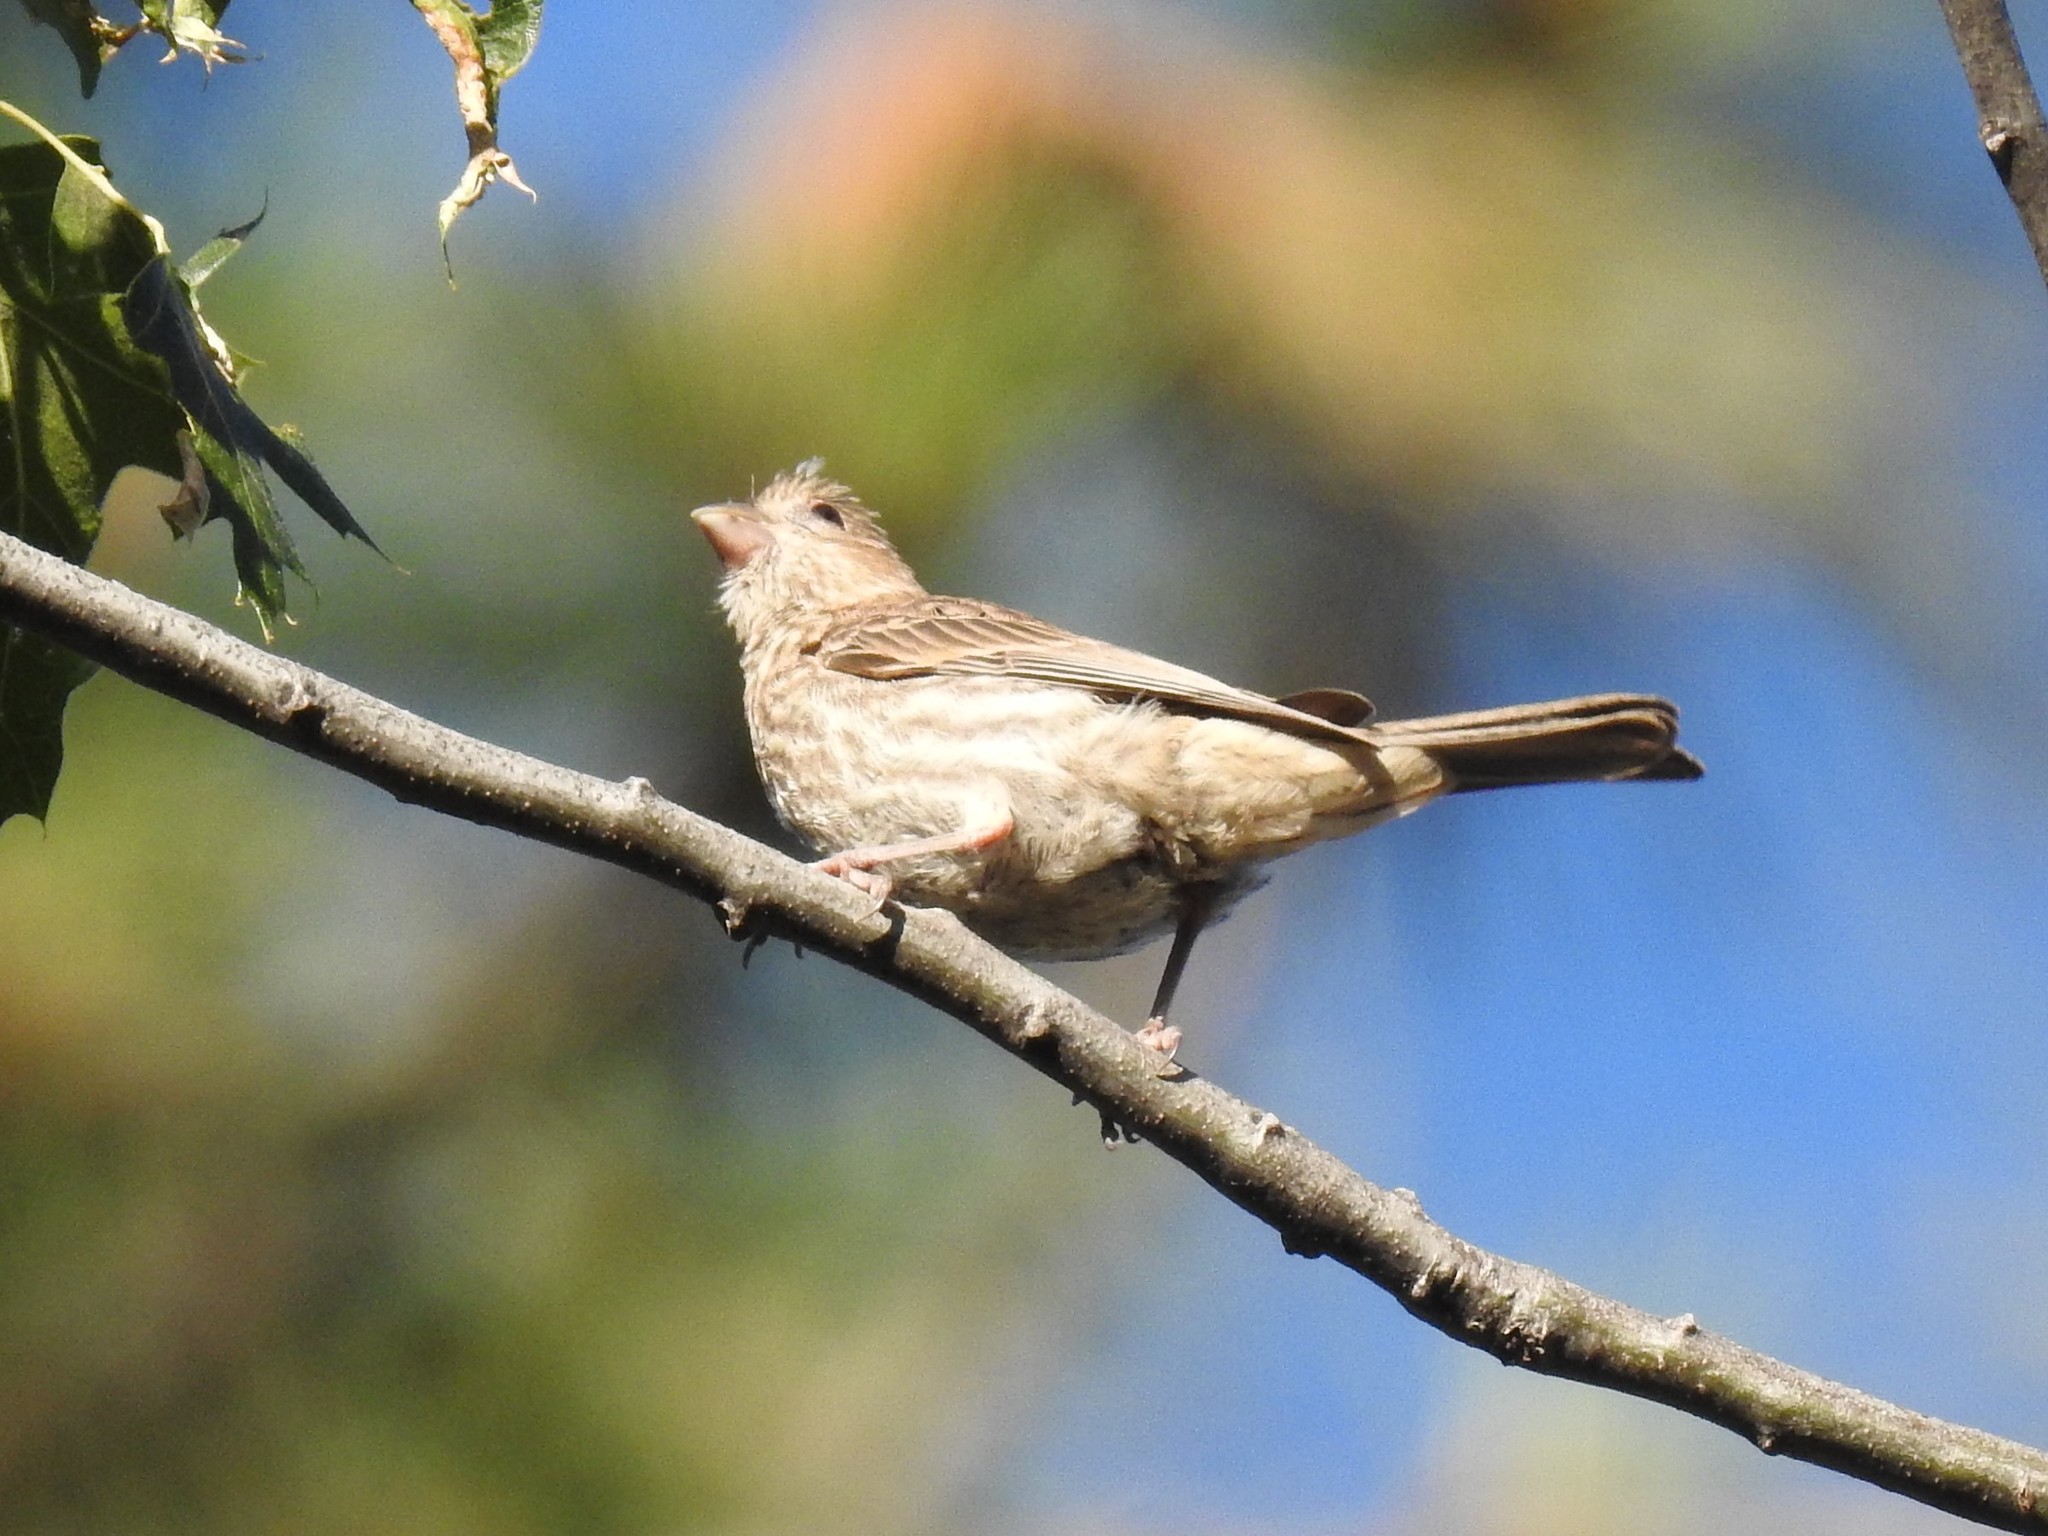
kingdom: Animalia
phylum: Chordata
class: Aves
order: Passeriformes
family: Fringillidae
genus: Haemorhous
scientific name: Haemorhous mexicanus
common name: House finch
